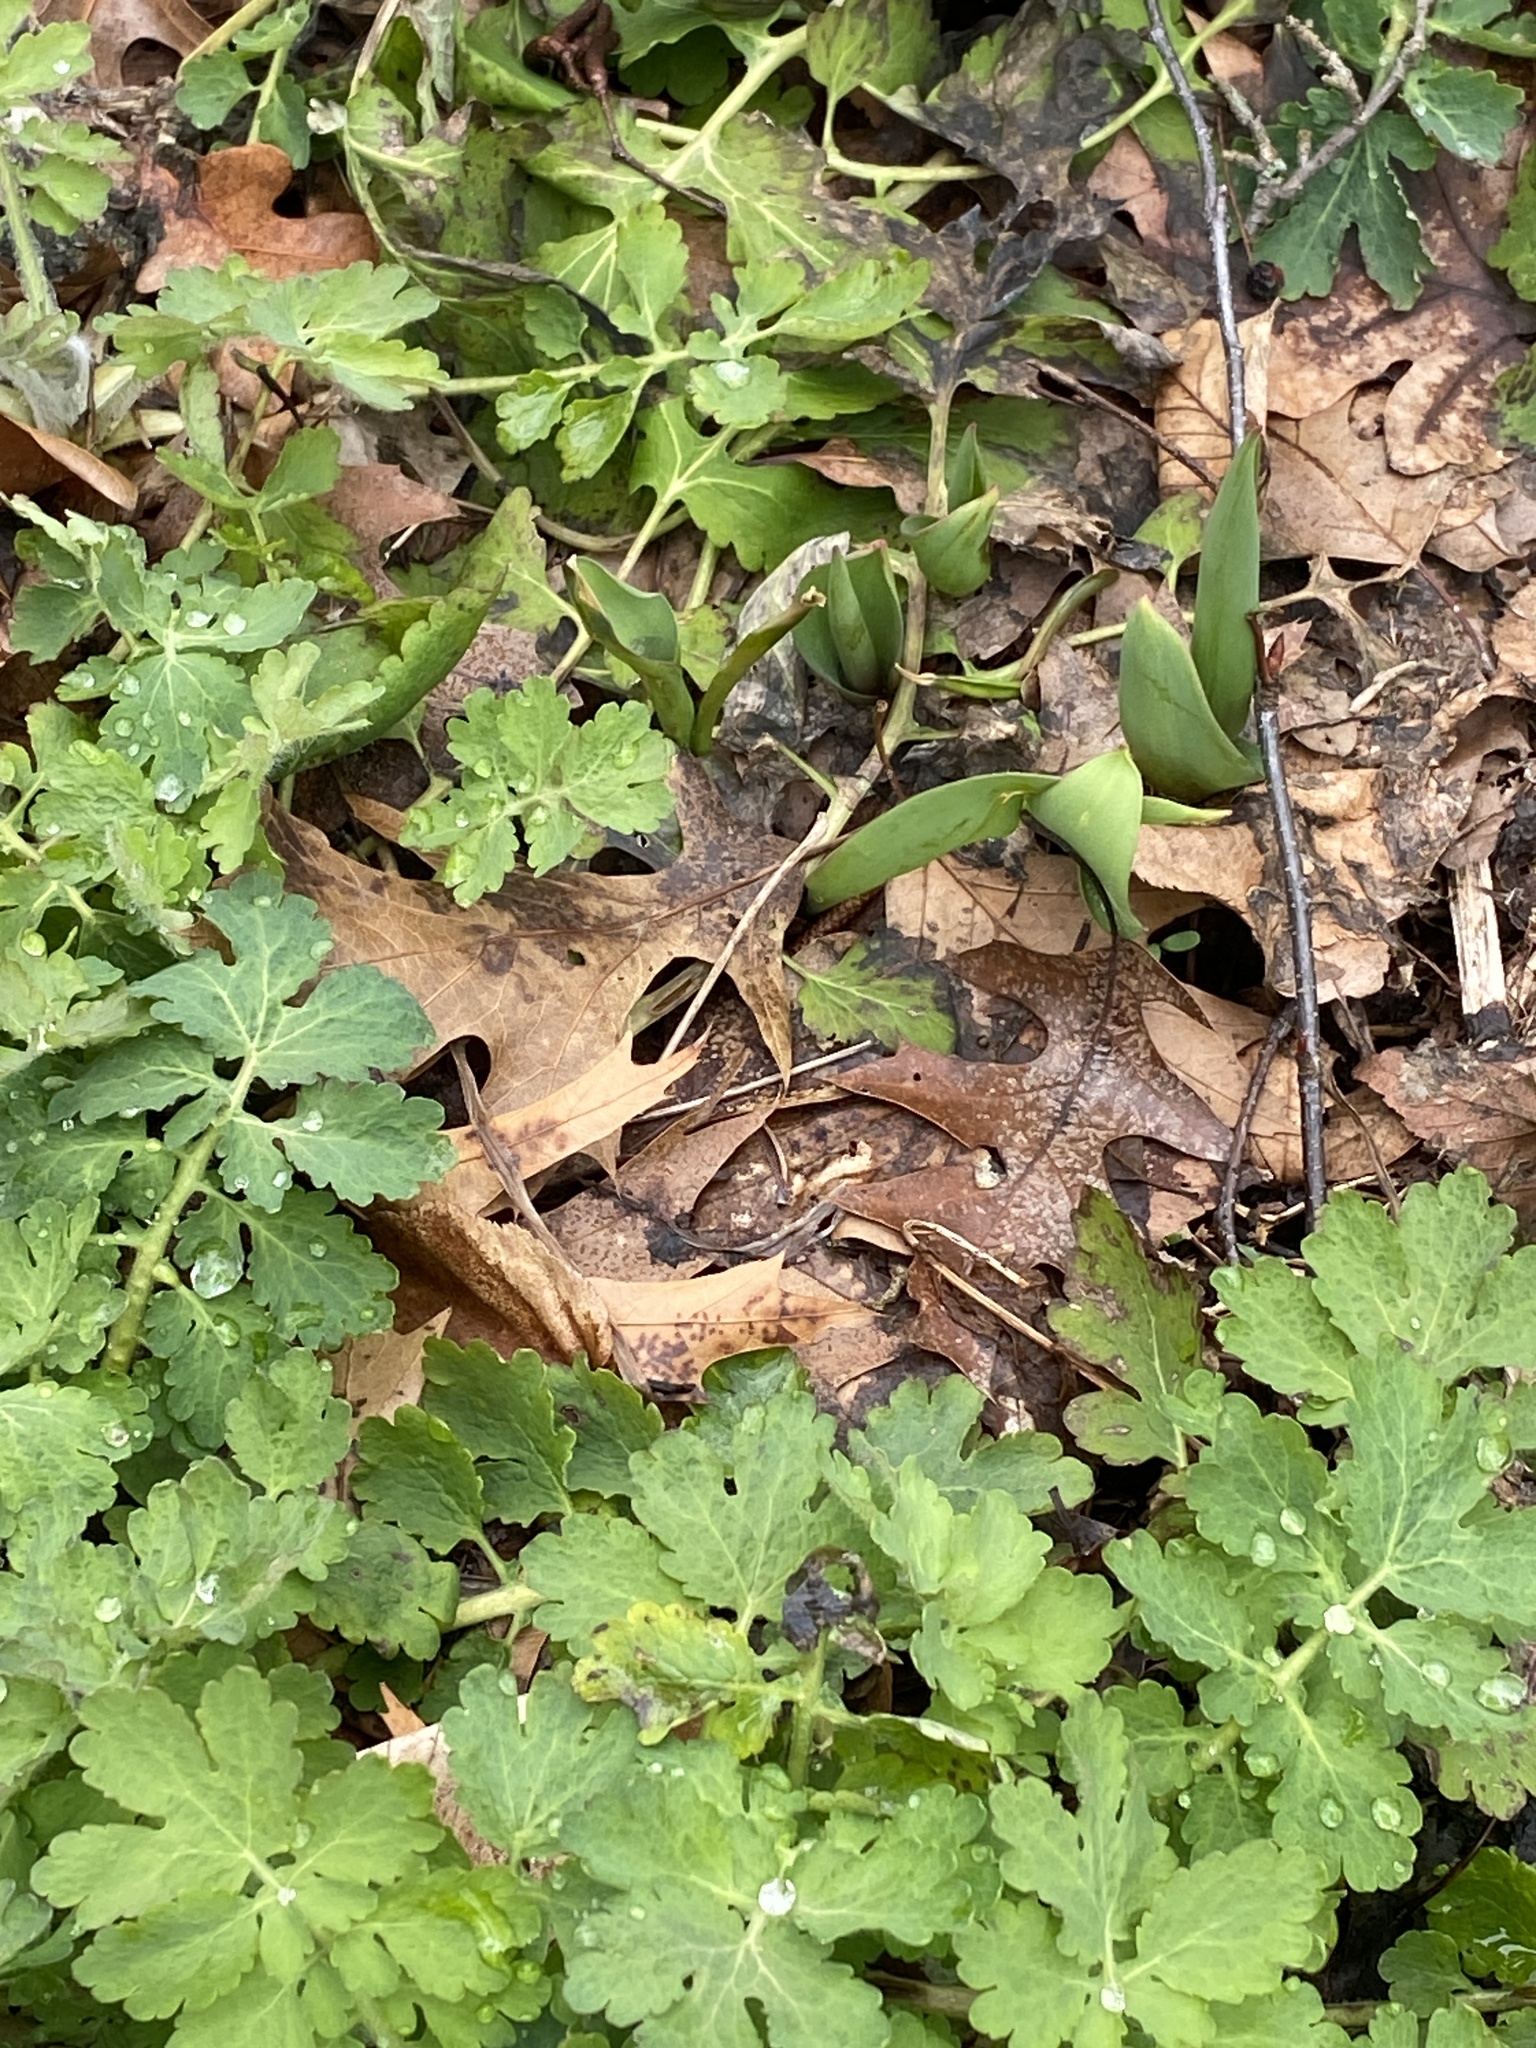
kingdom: Plantae
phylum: Tracheophyta
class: Magnoliopsida
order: Ranunculales
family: Papaveraceae
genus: Chelidonium
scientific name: Chelidonium majus
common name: Greater celandine
